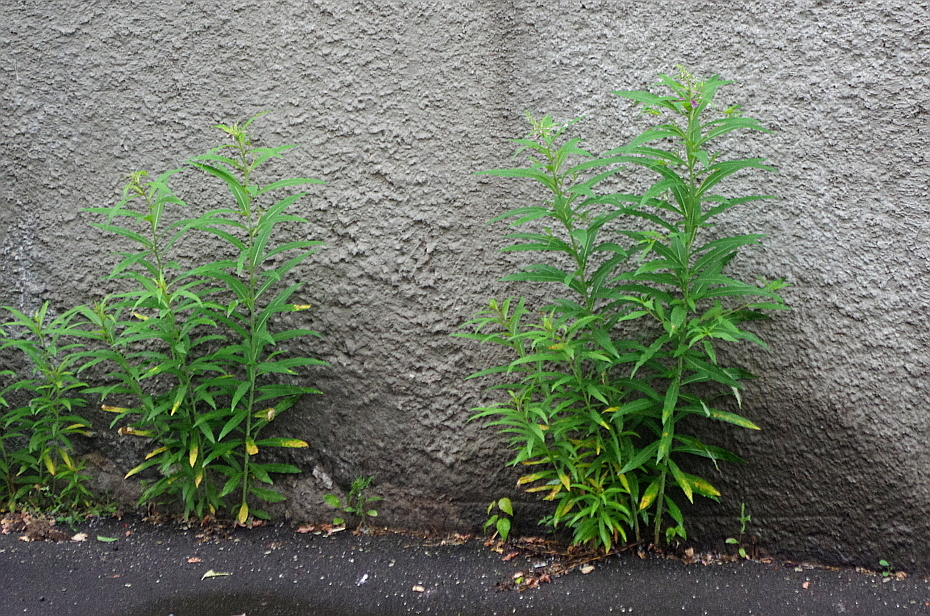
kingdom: Plantae
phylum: Tracheophyta
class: Magnoliopsida
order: Myrtales
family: Onagraceae
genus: Chamaenerion
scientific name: Chamaenerion angustifolium
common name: Fireweed
